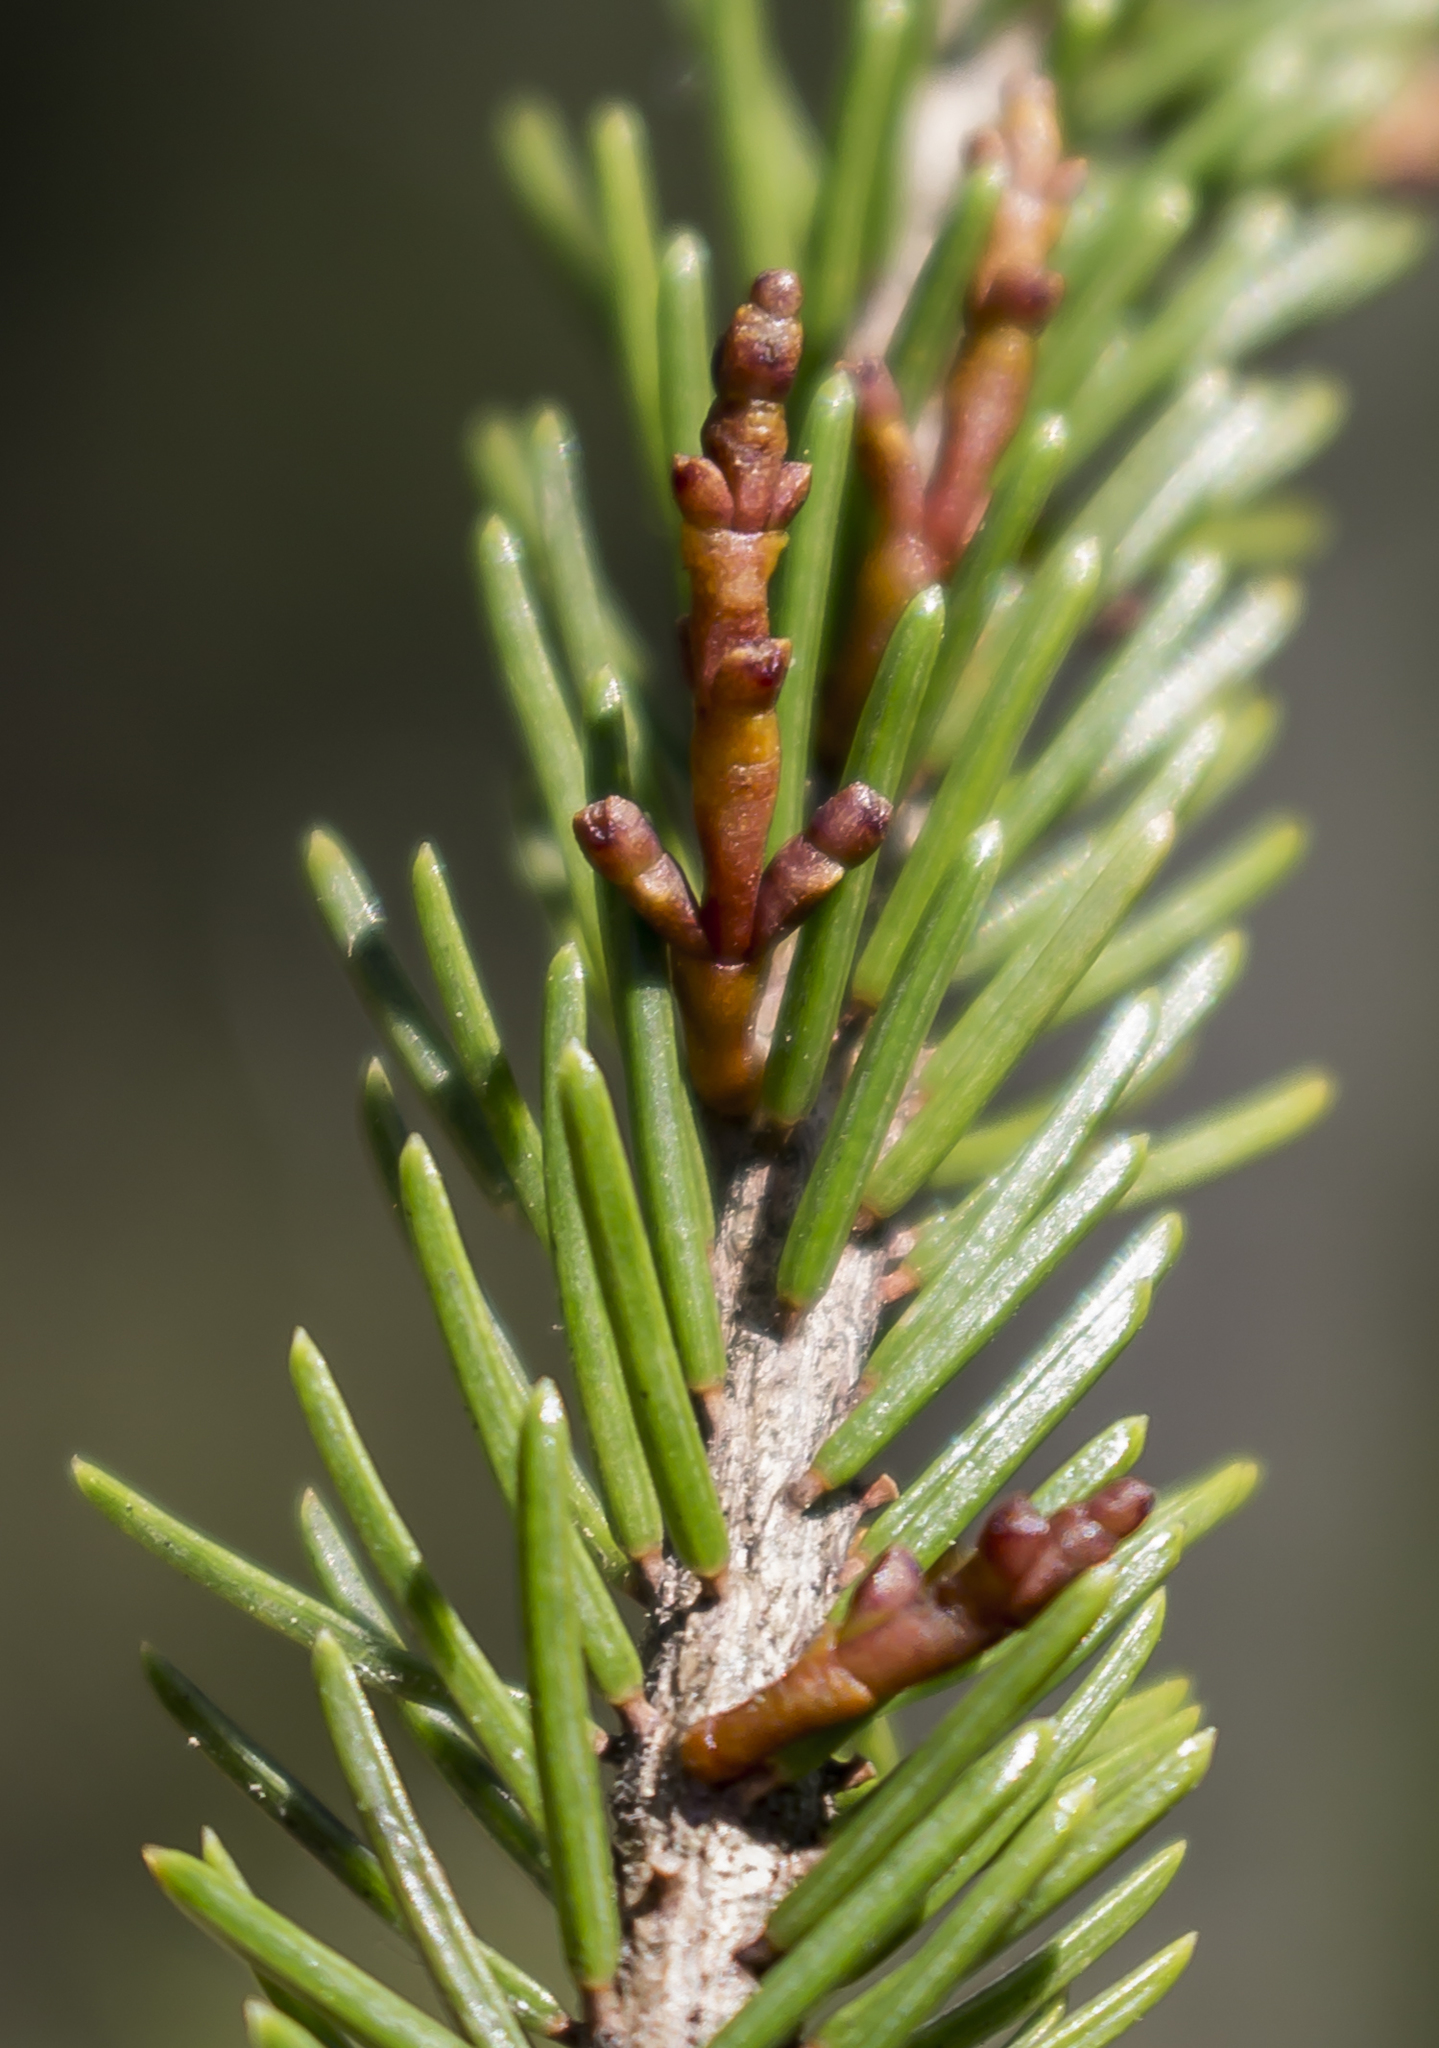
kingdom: Plantae
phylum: Tracheophyta
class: Magnoliopsida
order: Santalales
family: Viscaceae
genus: Arceuthobium
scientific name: Arceuthobium pusillum
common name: Dwarf-mistletoe
